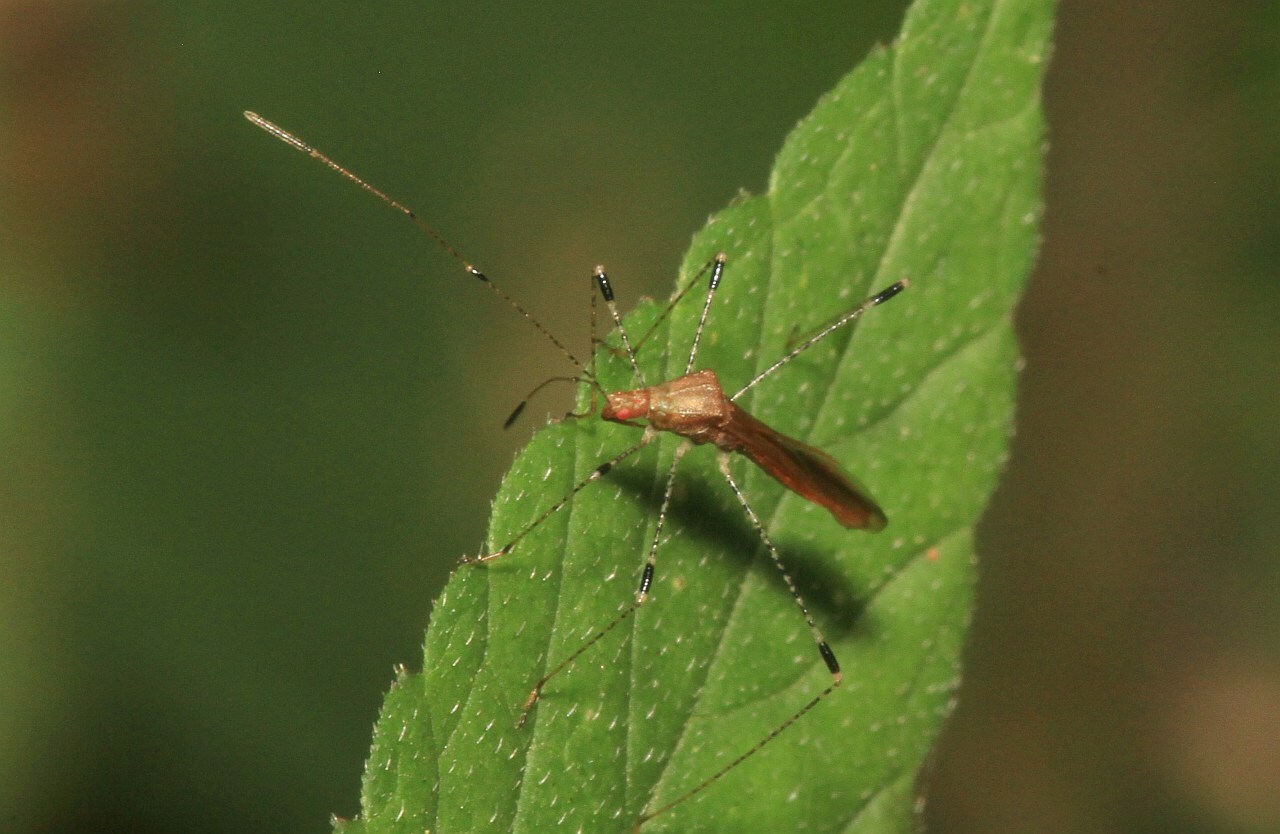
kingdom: Animalia
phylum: Arthropoda
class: Insecta
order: Hemiptera
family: Berytidae
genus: Metatropis
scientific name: Metatropis rufescens
